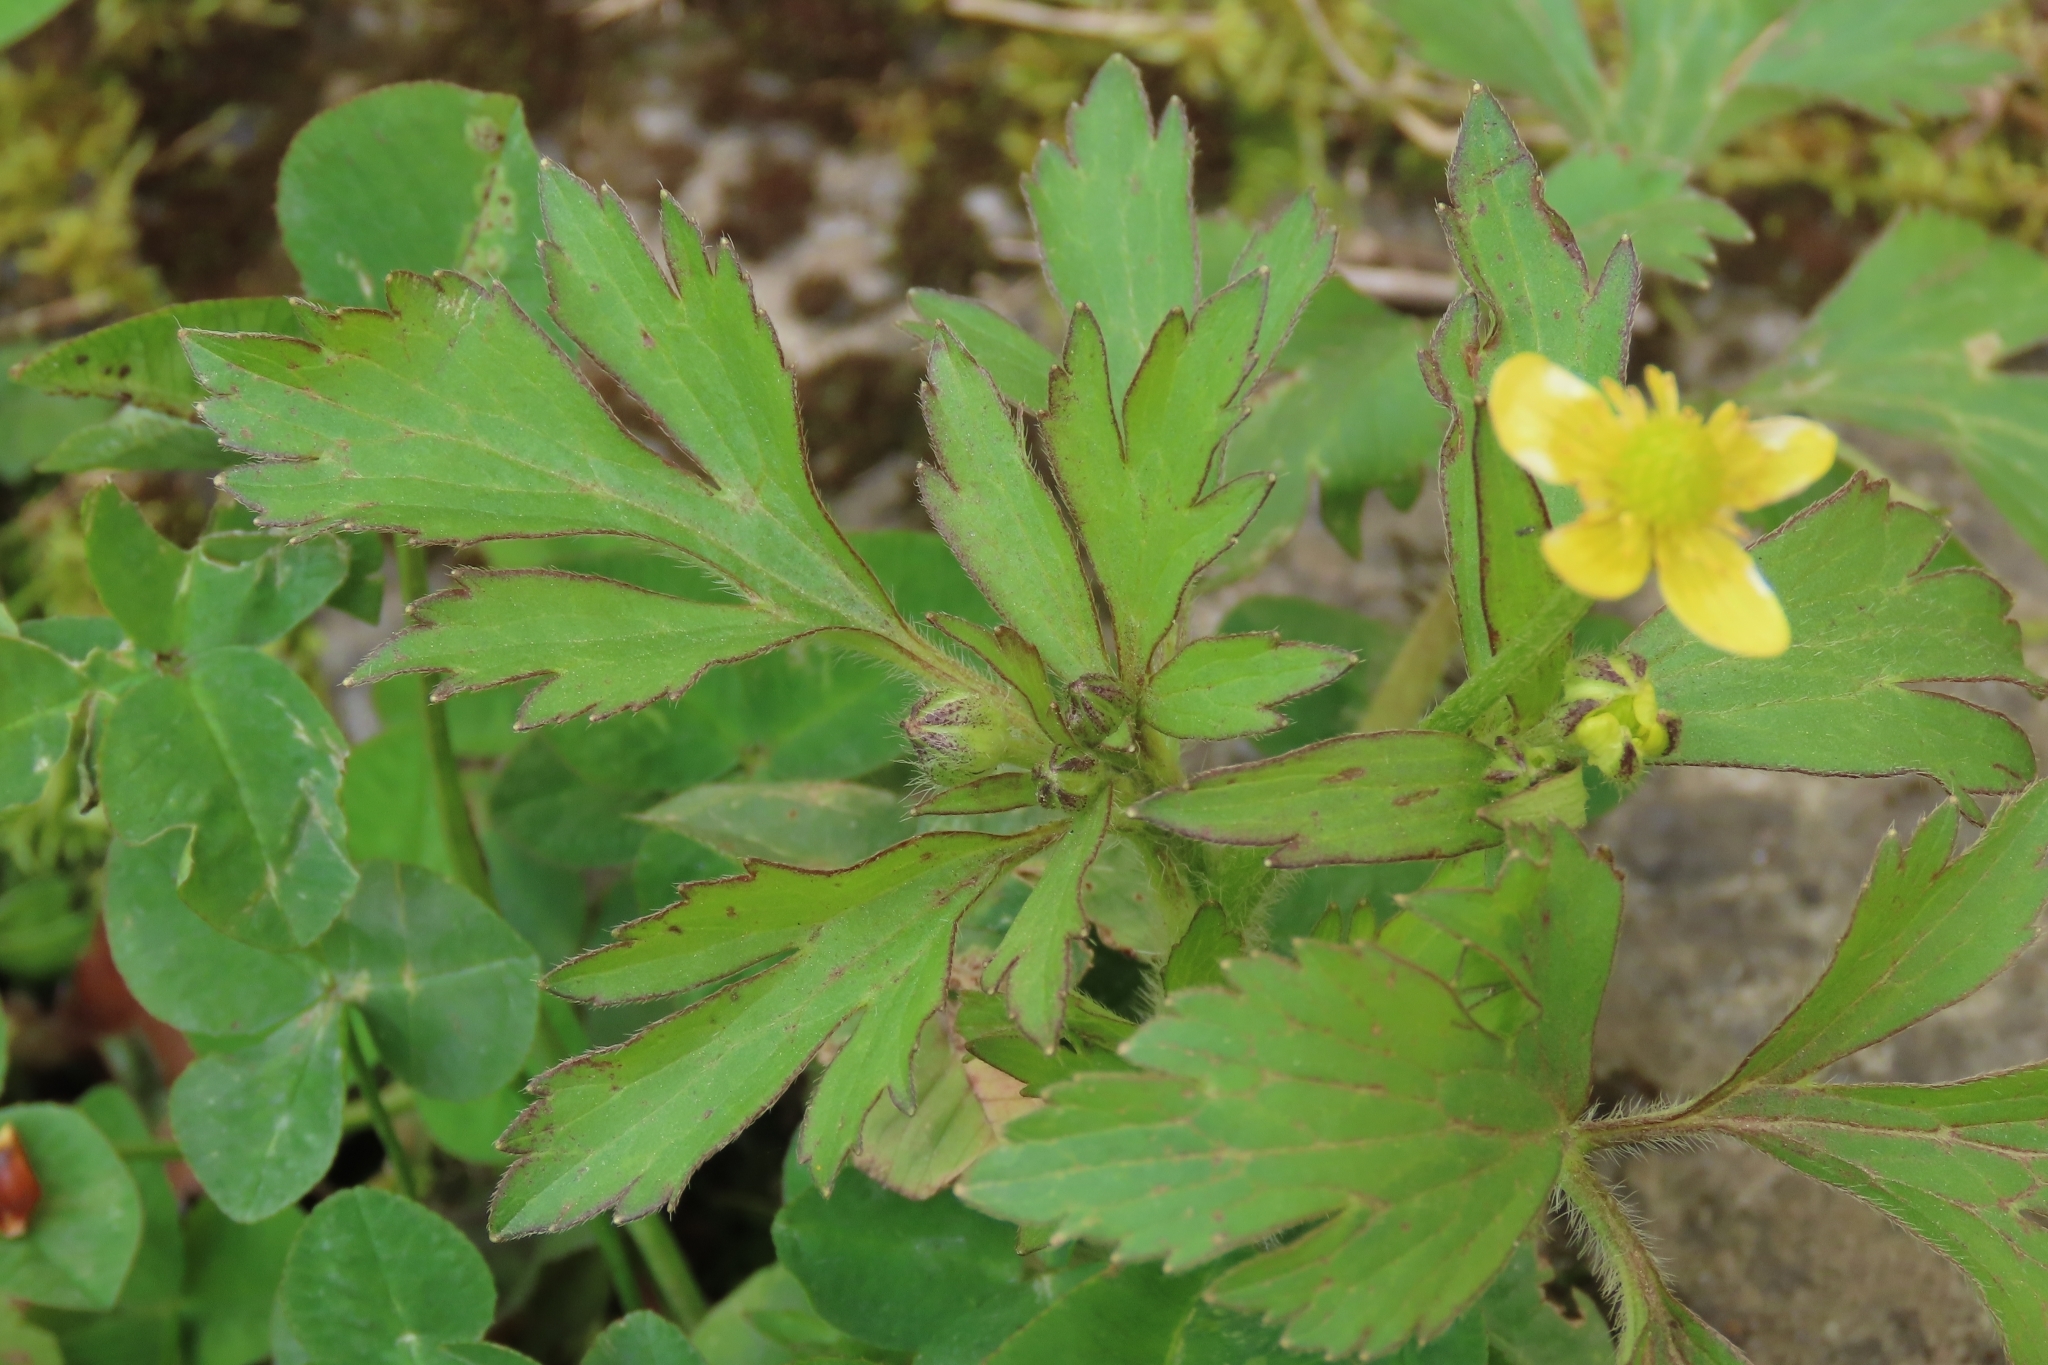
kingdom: Plantae
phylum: Tracheophyta
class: Magnoliopsida
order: Ranunculales
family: Ranunculaceae
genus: Ranunculus
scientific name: Ranunculus cantoniensis
